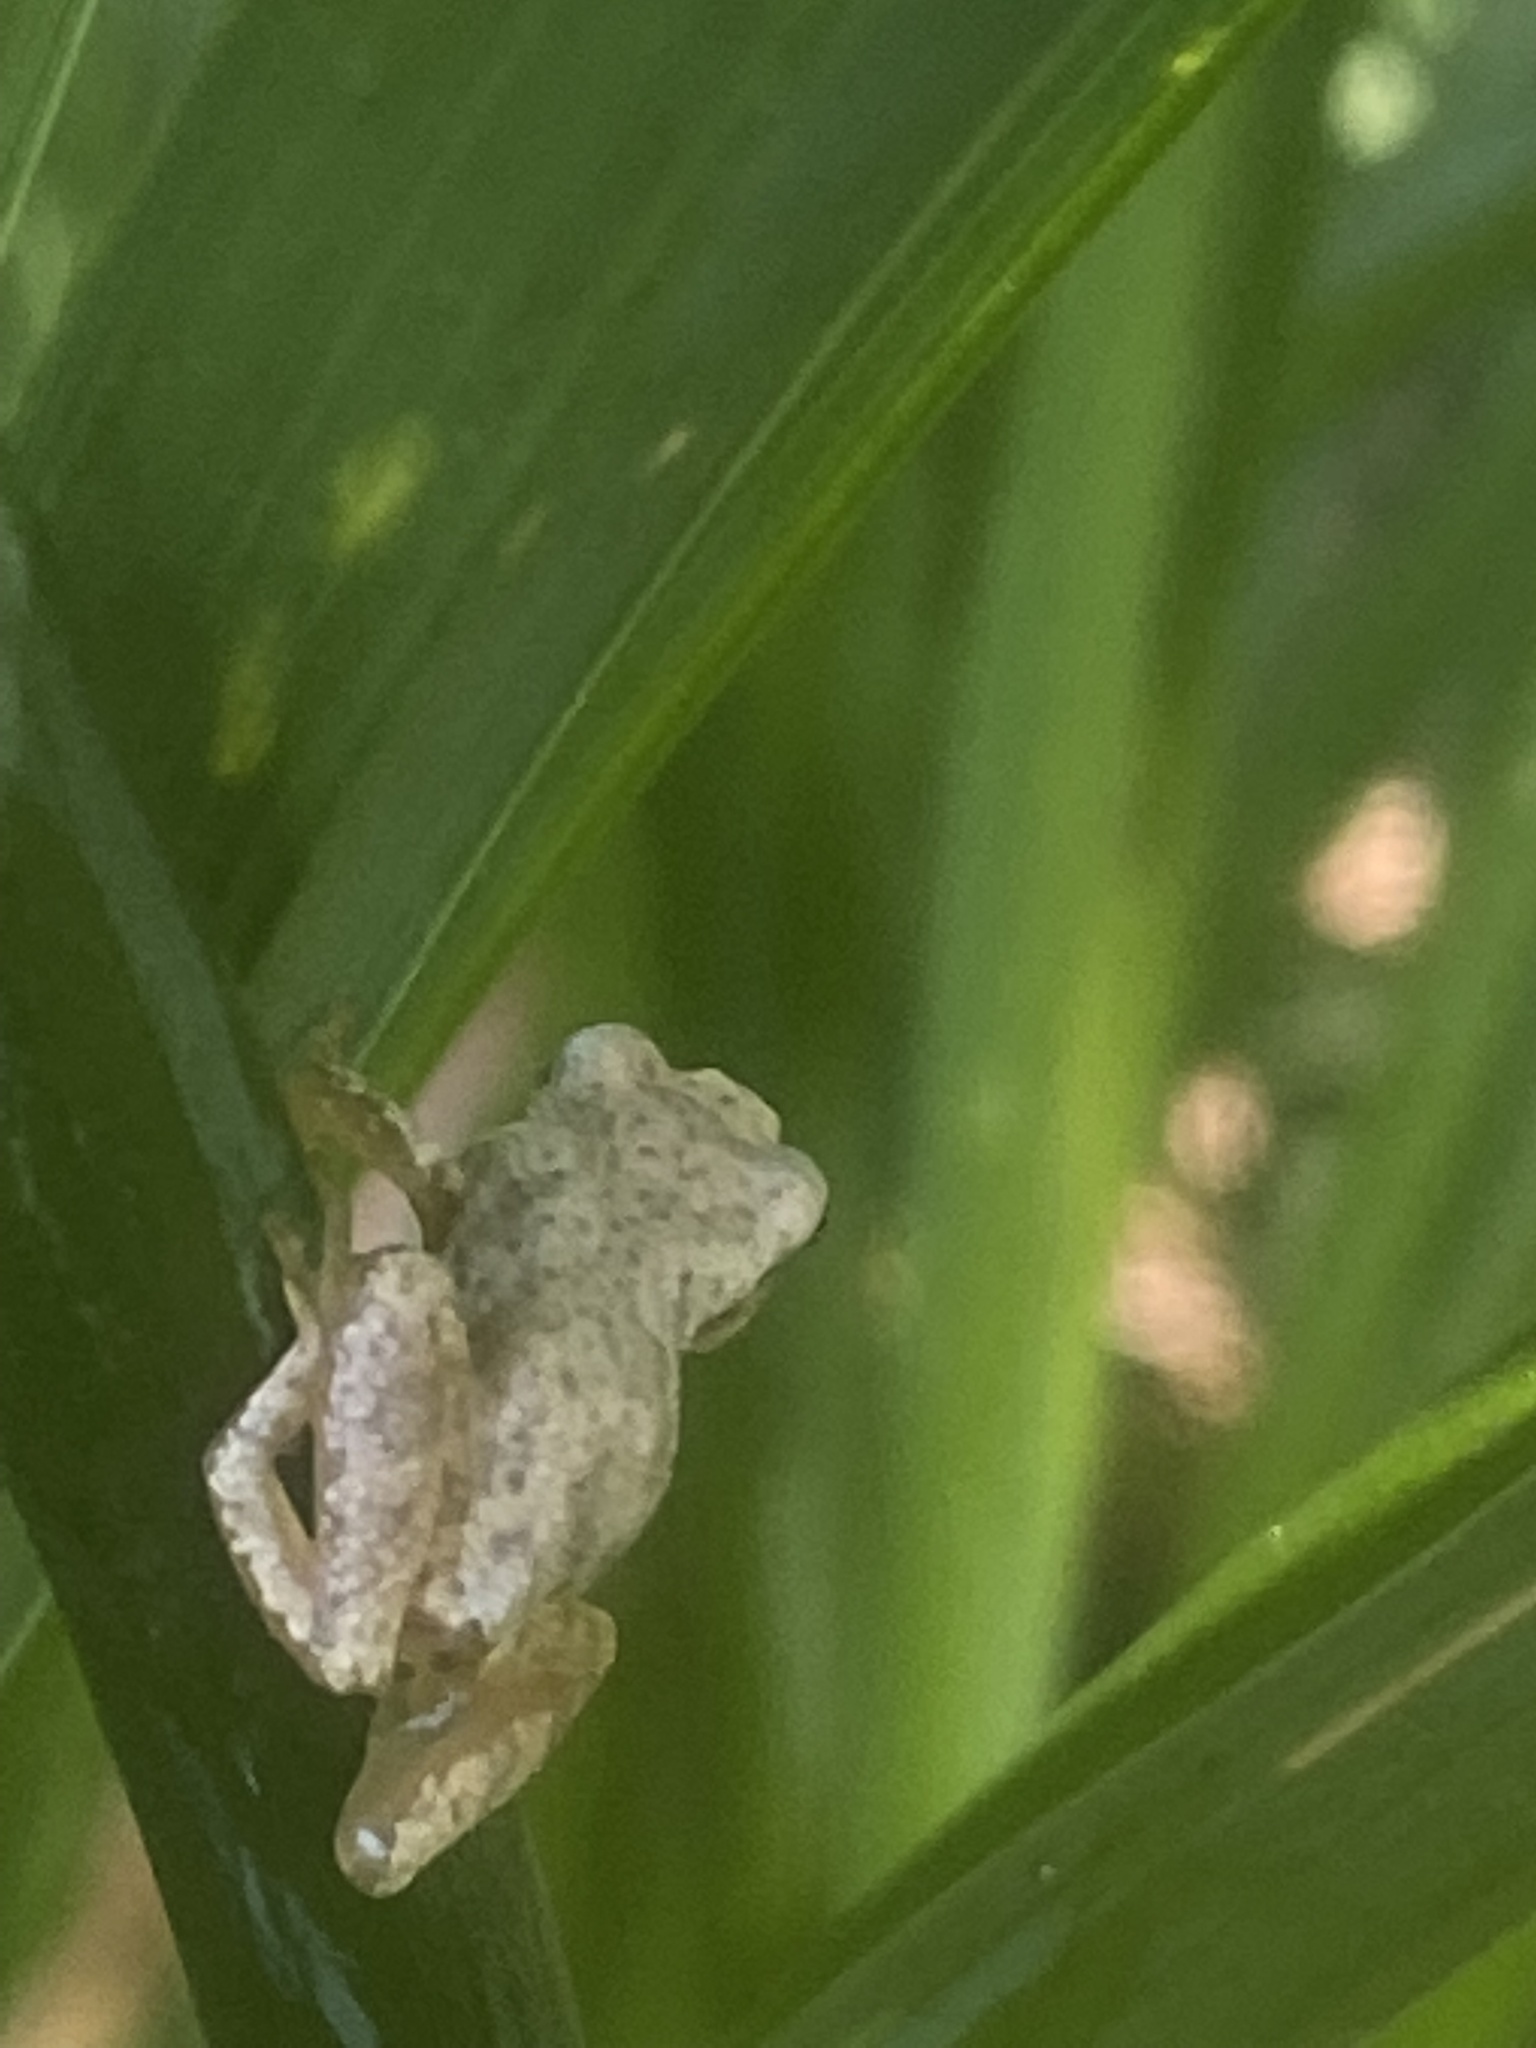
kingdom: Animalia
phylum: Chordata
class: Amphibia
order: Anura
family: Hylidae
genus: Pseudacris
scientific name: Pseudacris crucifer
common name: Spring peeper
